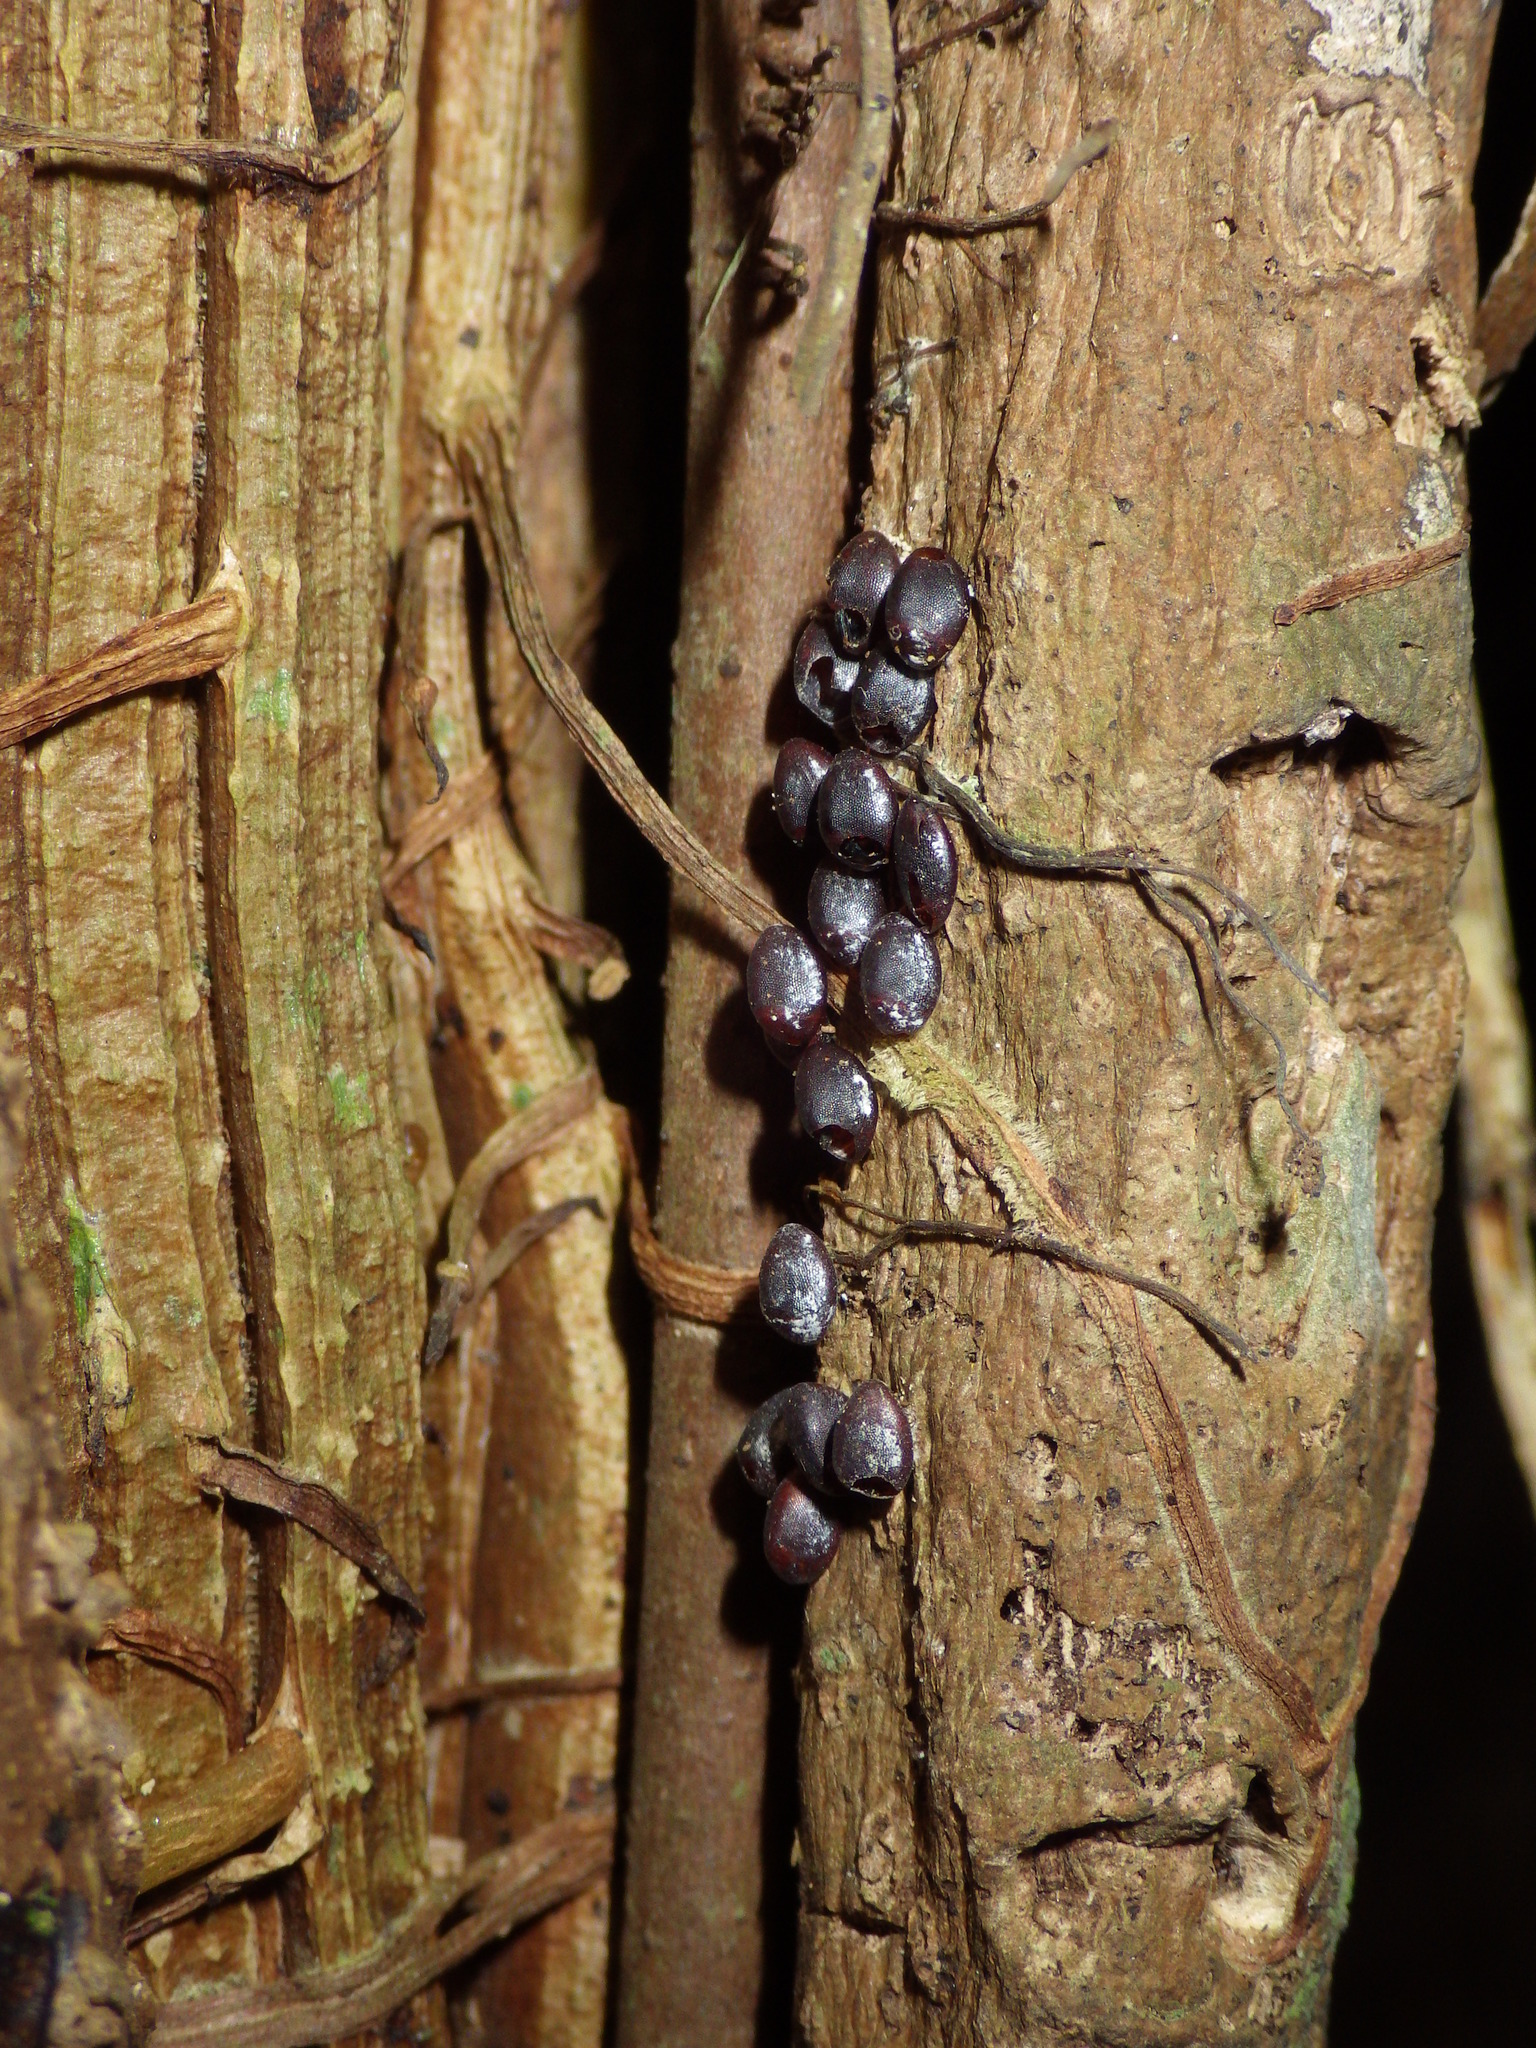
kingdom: Animalia
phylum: Arthropoda
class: Insecta
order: Hemiptera
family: Coreidae
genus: Pternistria
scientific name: Pternistria bispina
